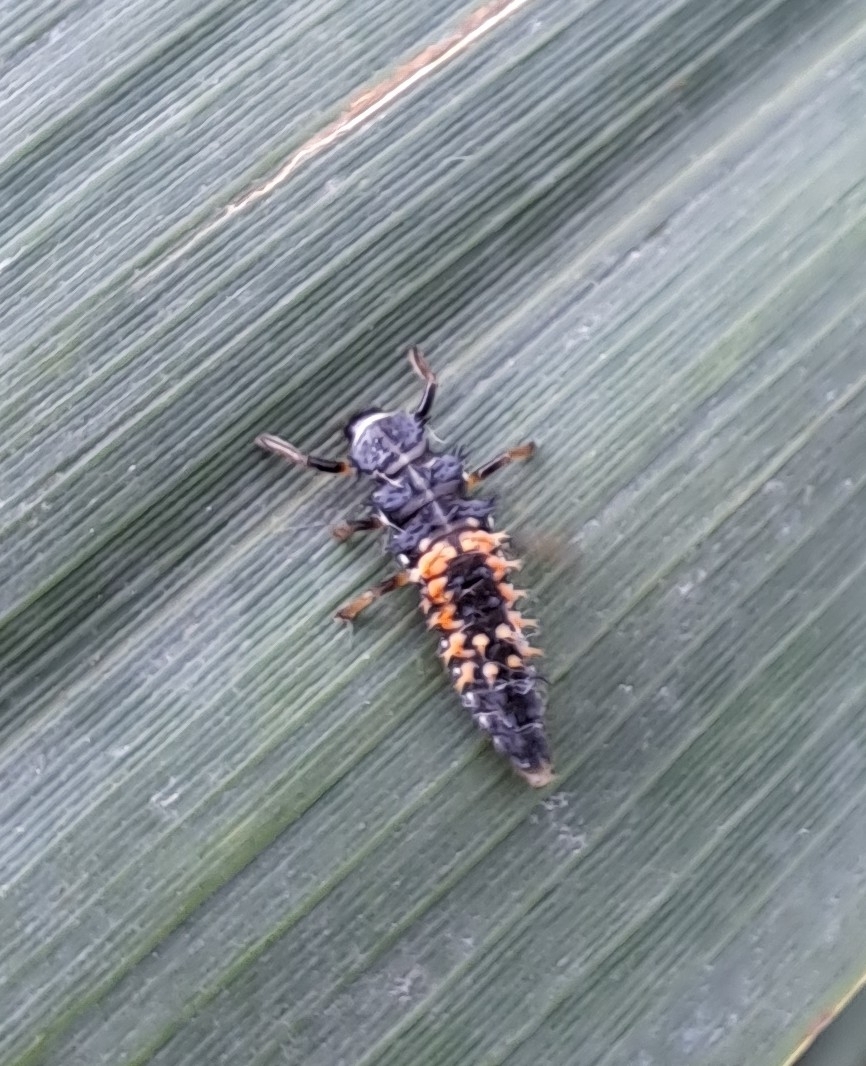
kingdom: Animalia
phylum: Arthropoda
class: Insecta
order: Coleoptera
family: Coccinellidae
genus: Harmonia
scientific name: Harmonia axyridis
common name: Harlequin ladybird
